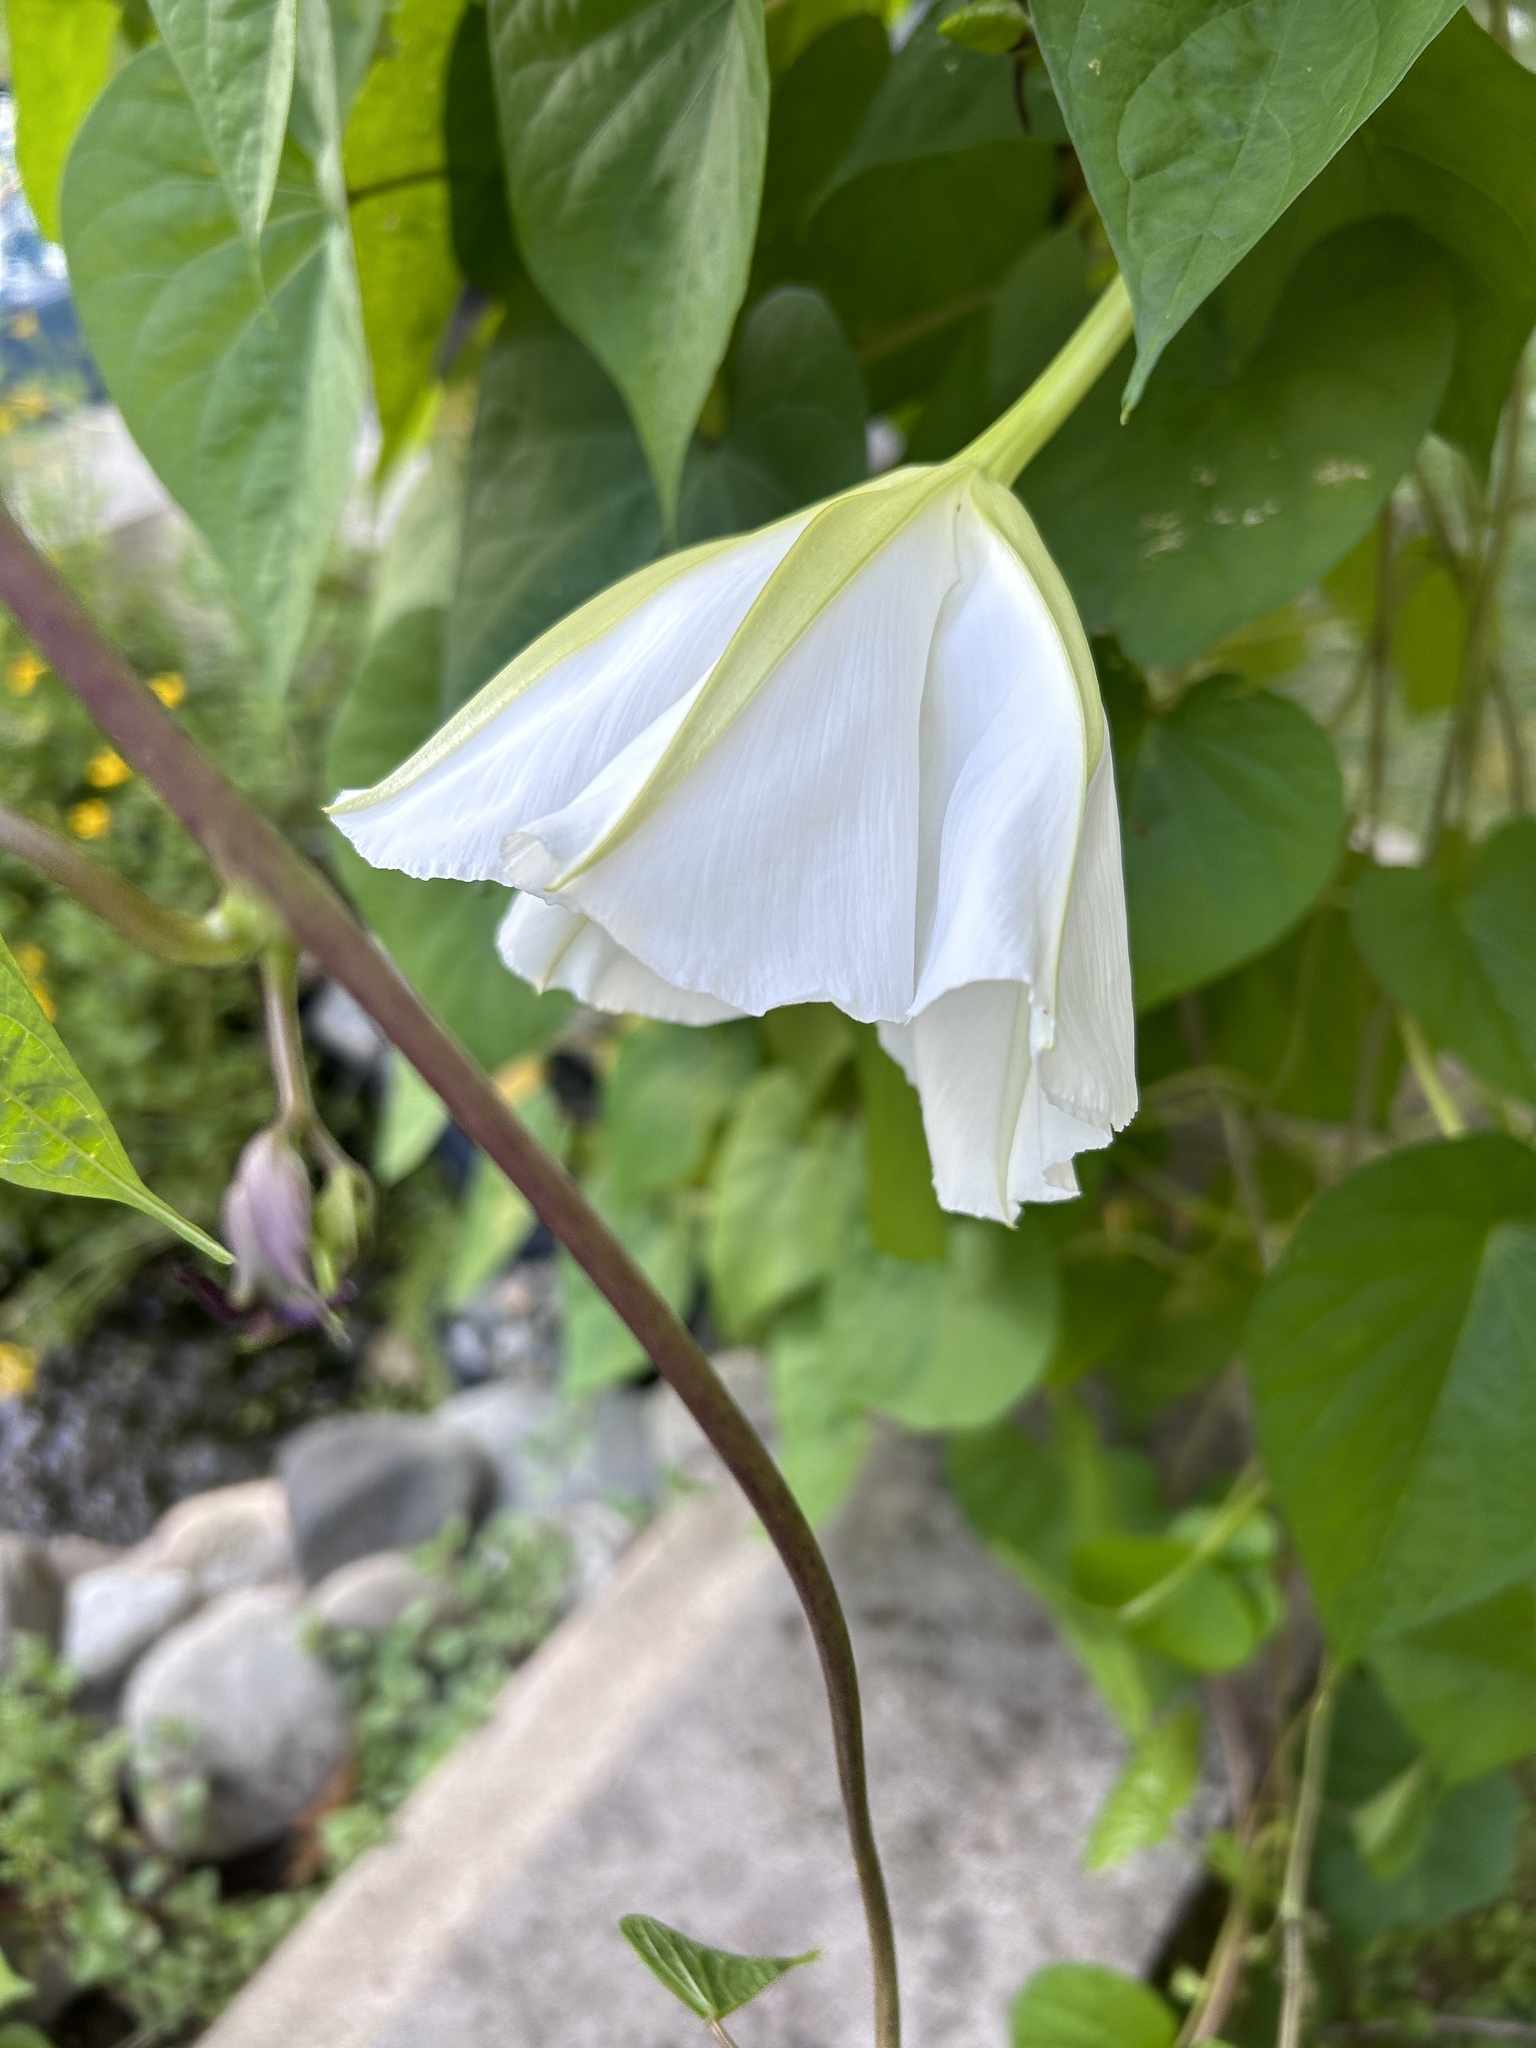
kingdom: Plantae
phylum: Tracheophyta
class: Magnoliopsida
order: Solanales
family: Convolvulaceae
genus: Ipomoea
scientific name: Ipomoea alba
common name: Moonflower
